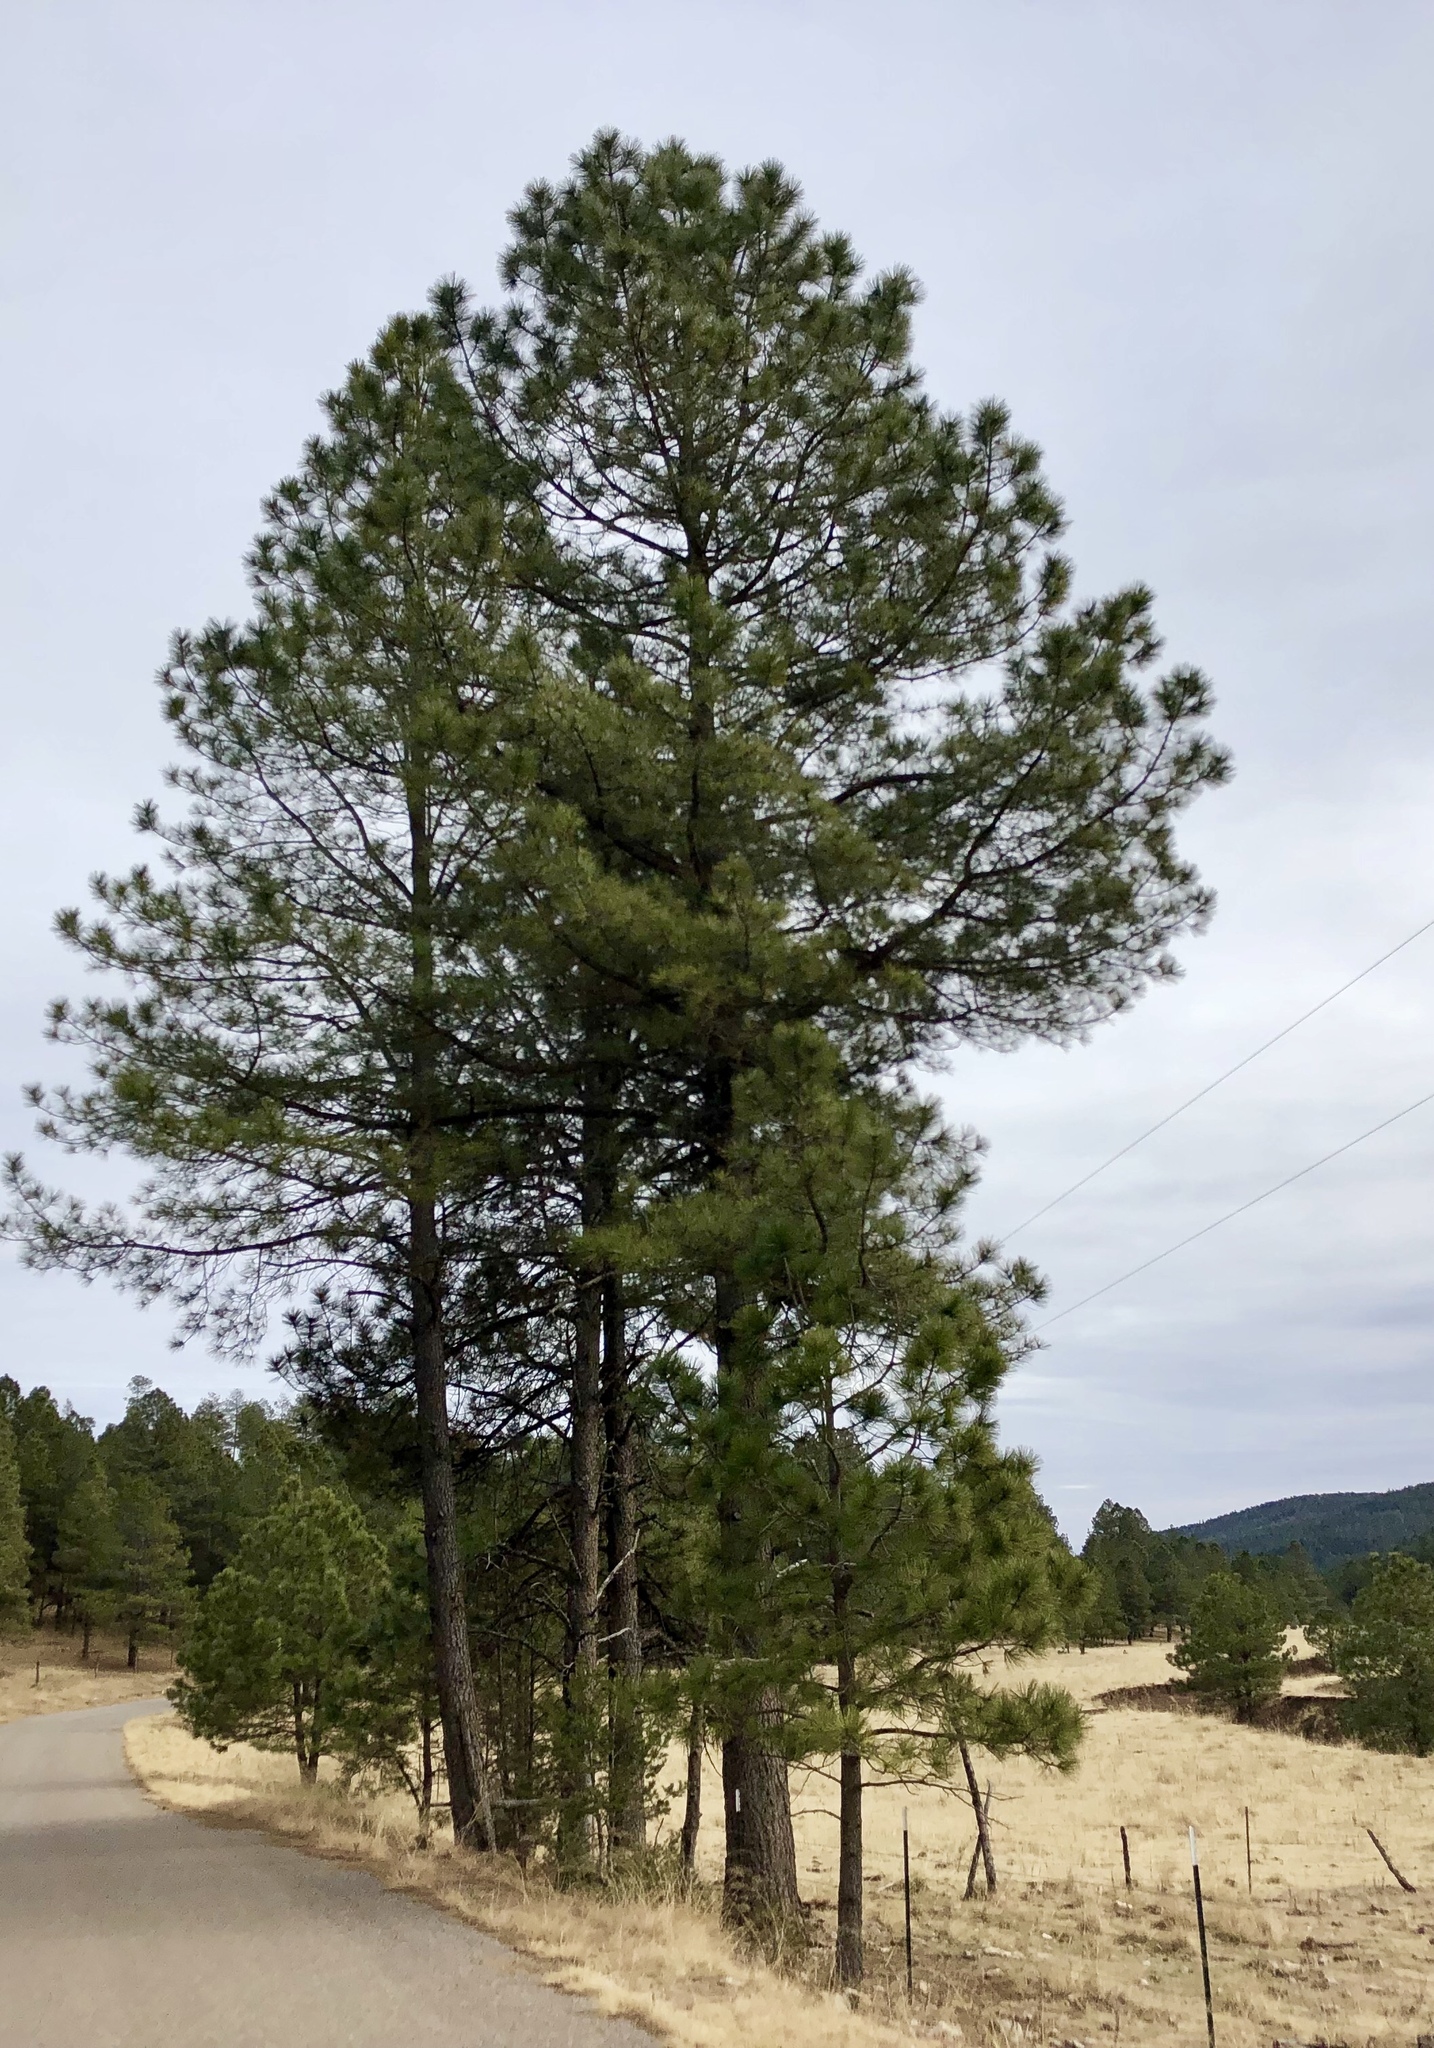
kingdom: Plantae
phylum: Tracheophyta
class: Pinopsida
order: Pinales
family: Pinaceae
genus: Pinus
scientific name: Pinus ponderosa
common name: Western yellow-pine
